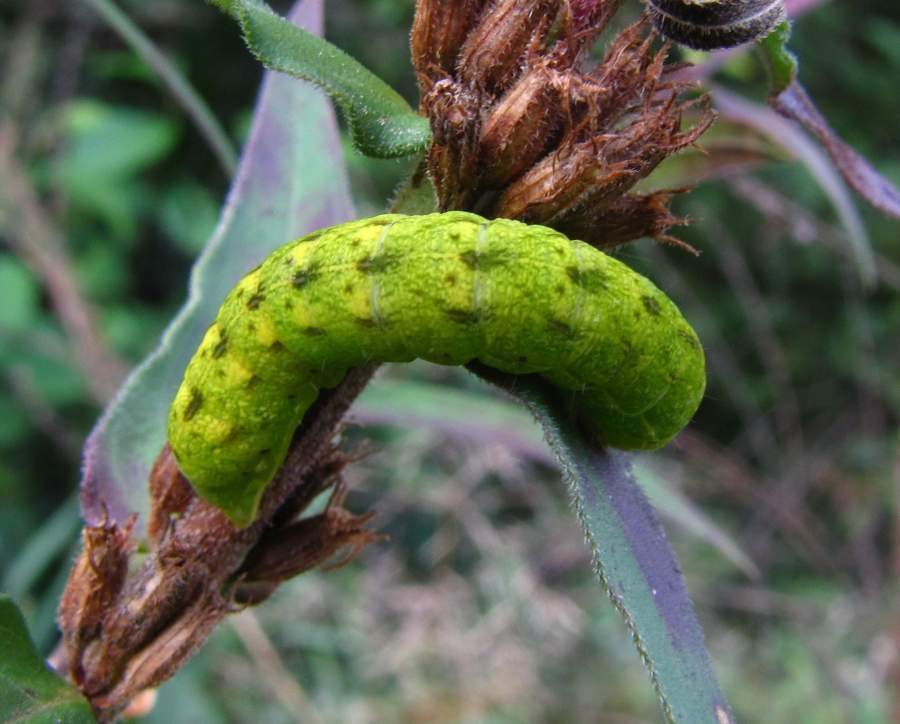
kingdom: Animalia
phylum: Arthropoda
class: Insecta
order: Lepidoptera
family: Noctuidae
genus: Spiramater
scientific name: Spiramater lutra
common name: Otter spiramater moth
